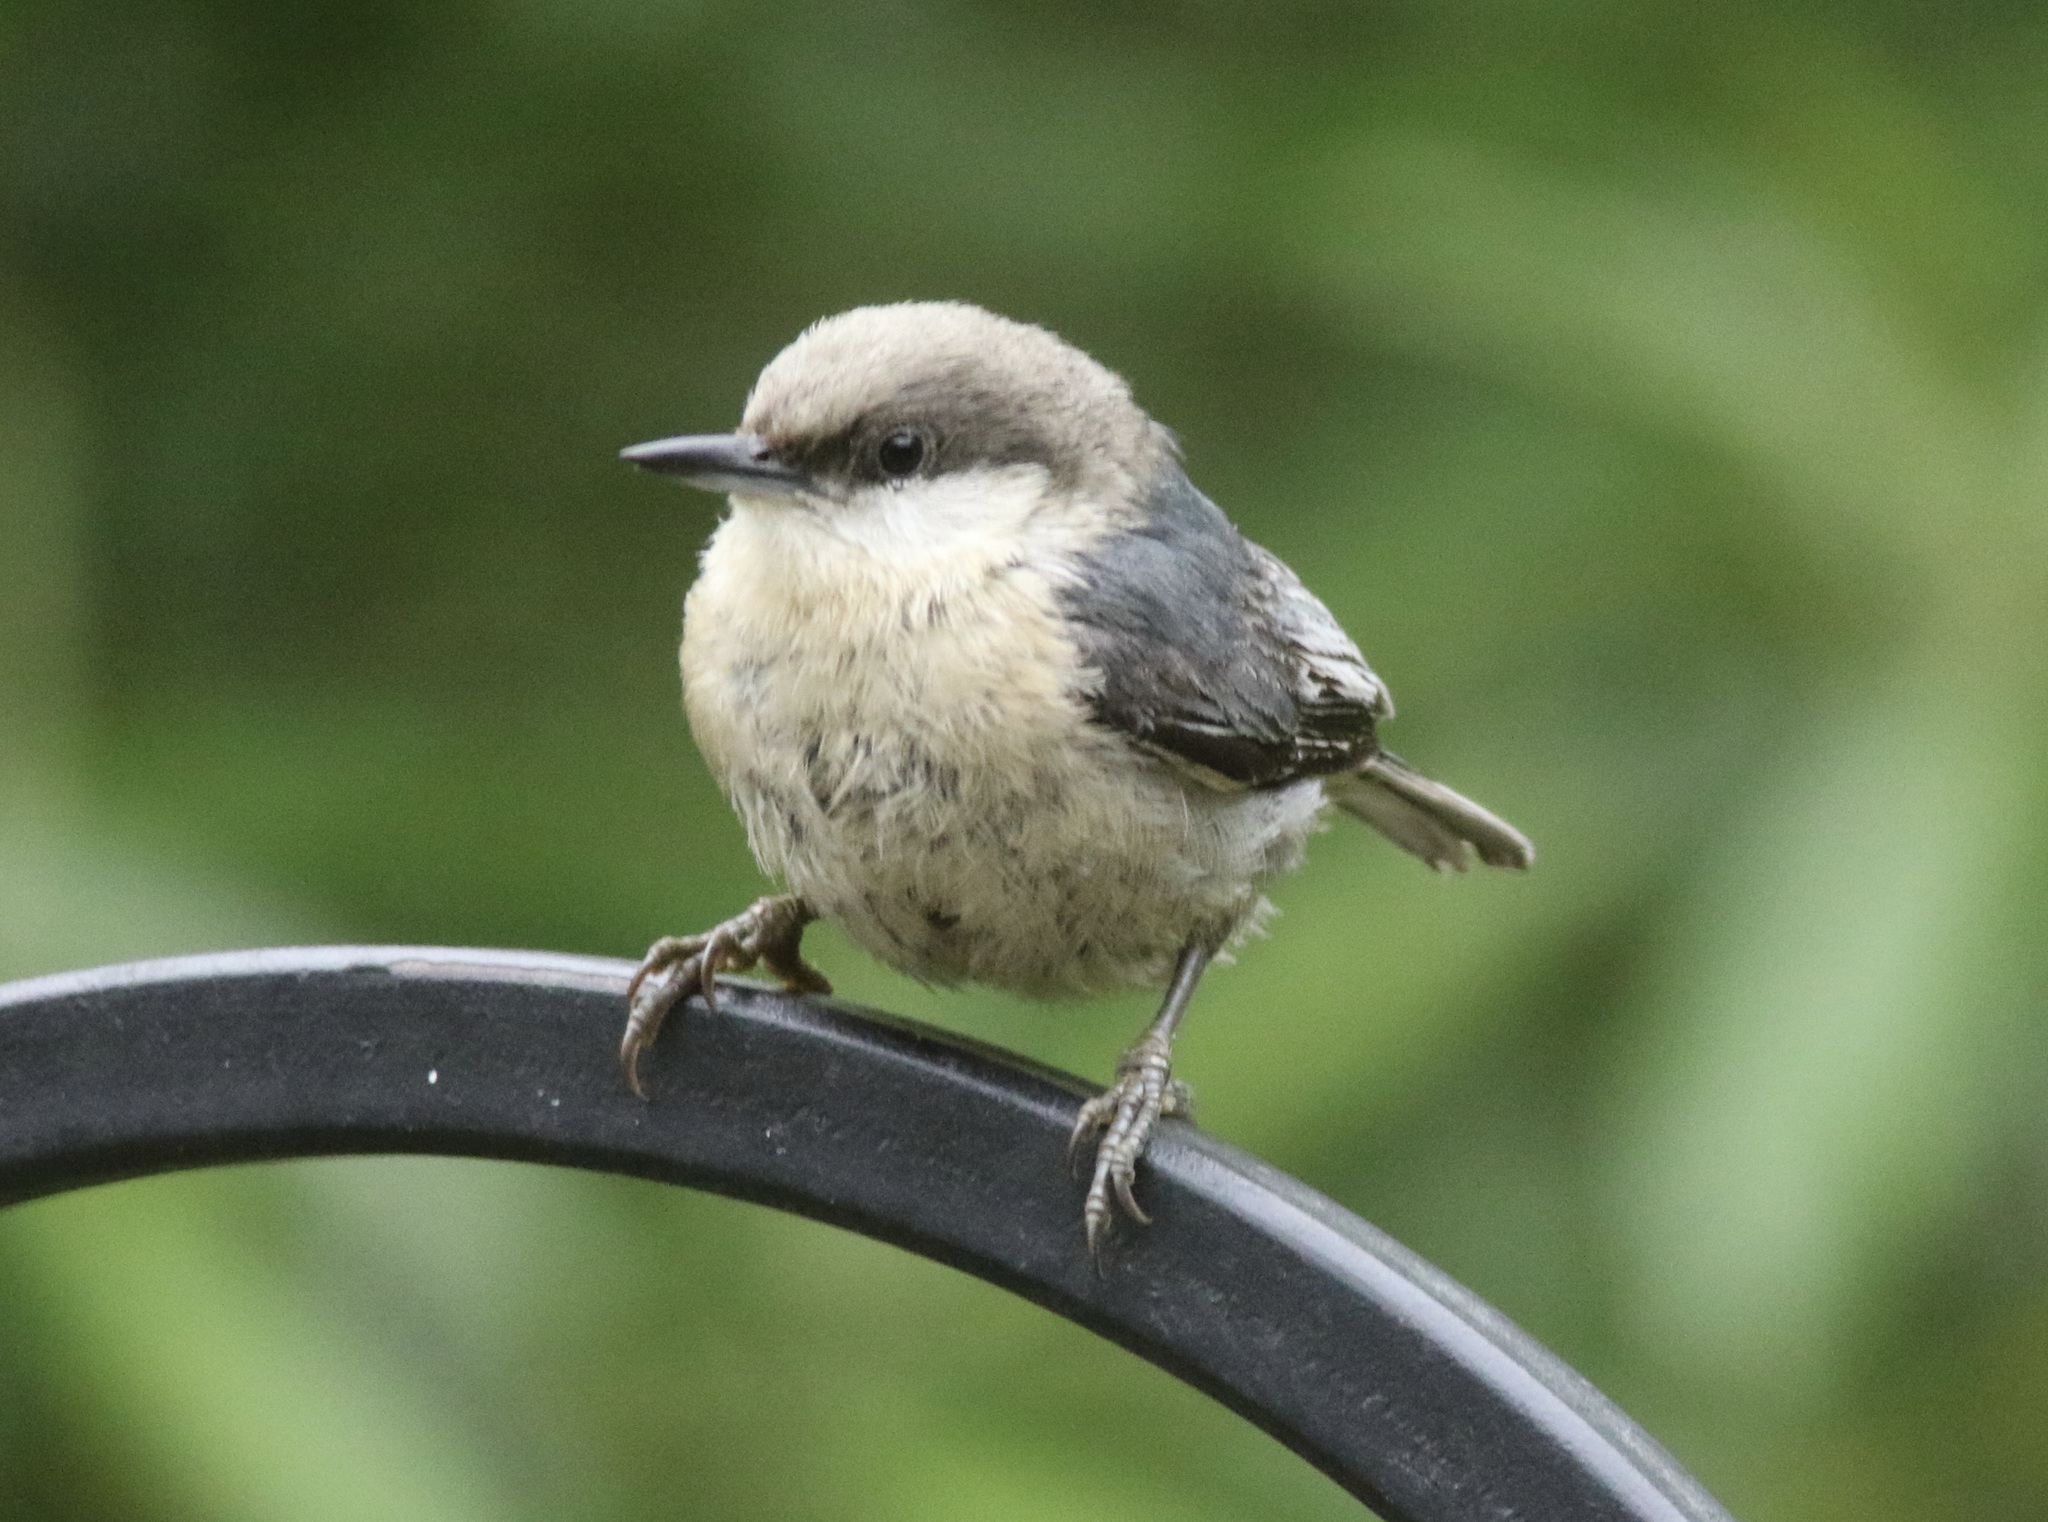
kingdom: Animalia
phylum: Chordata
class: Aves
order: Passeriformes
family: Sittidae
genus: Sitta
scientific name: Sitta pygmaea
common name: Pygmy nuthatch
